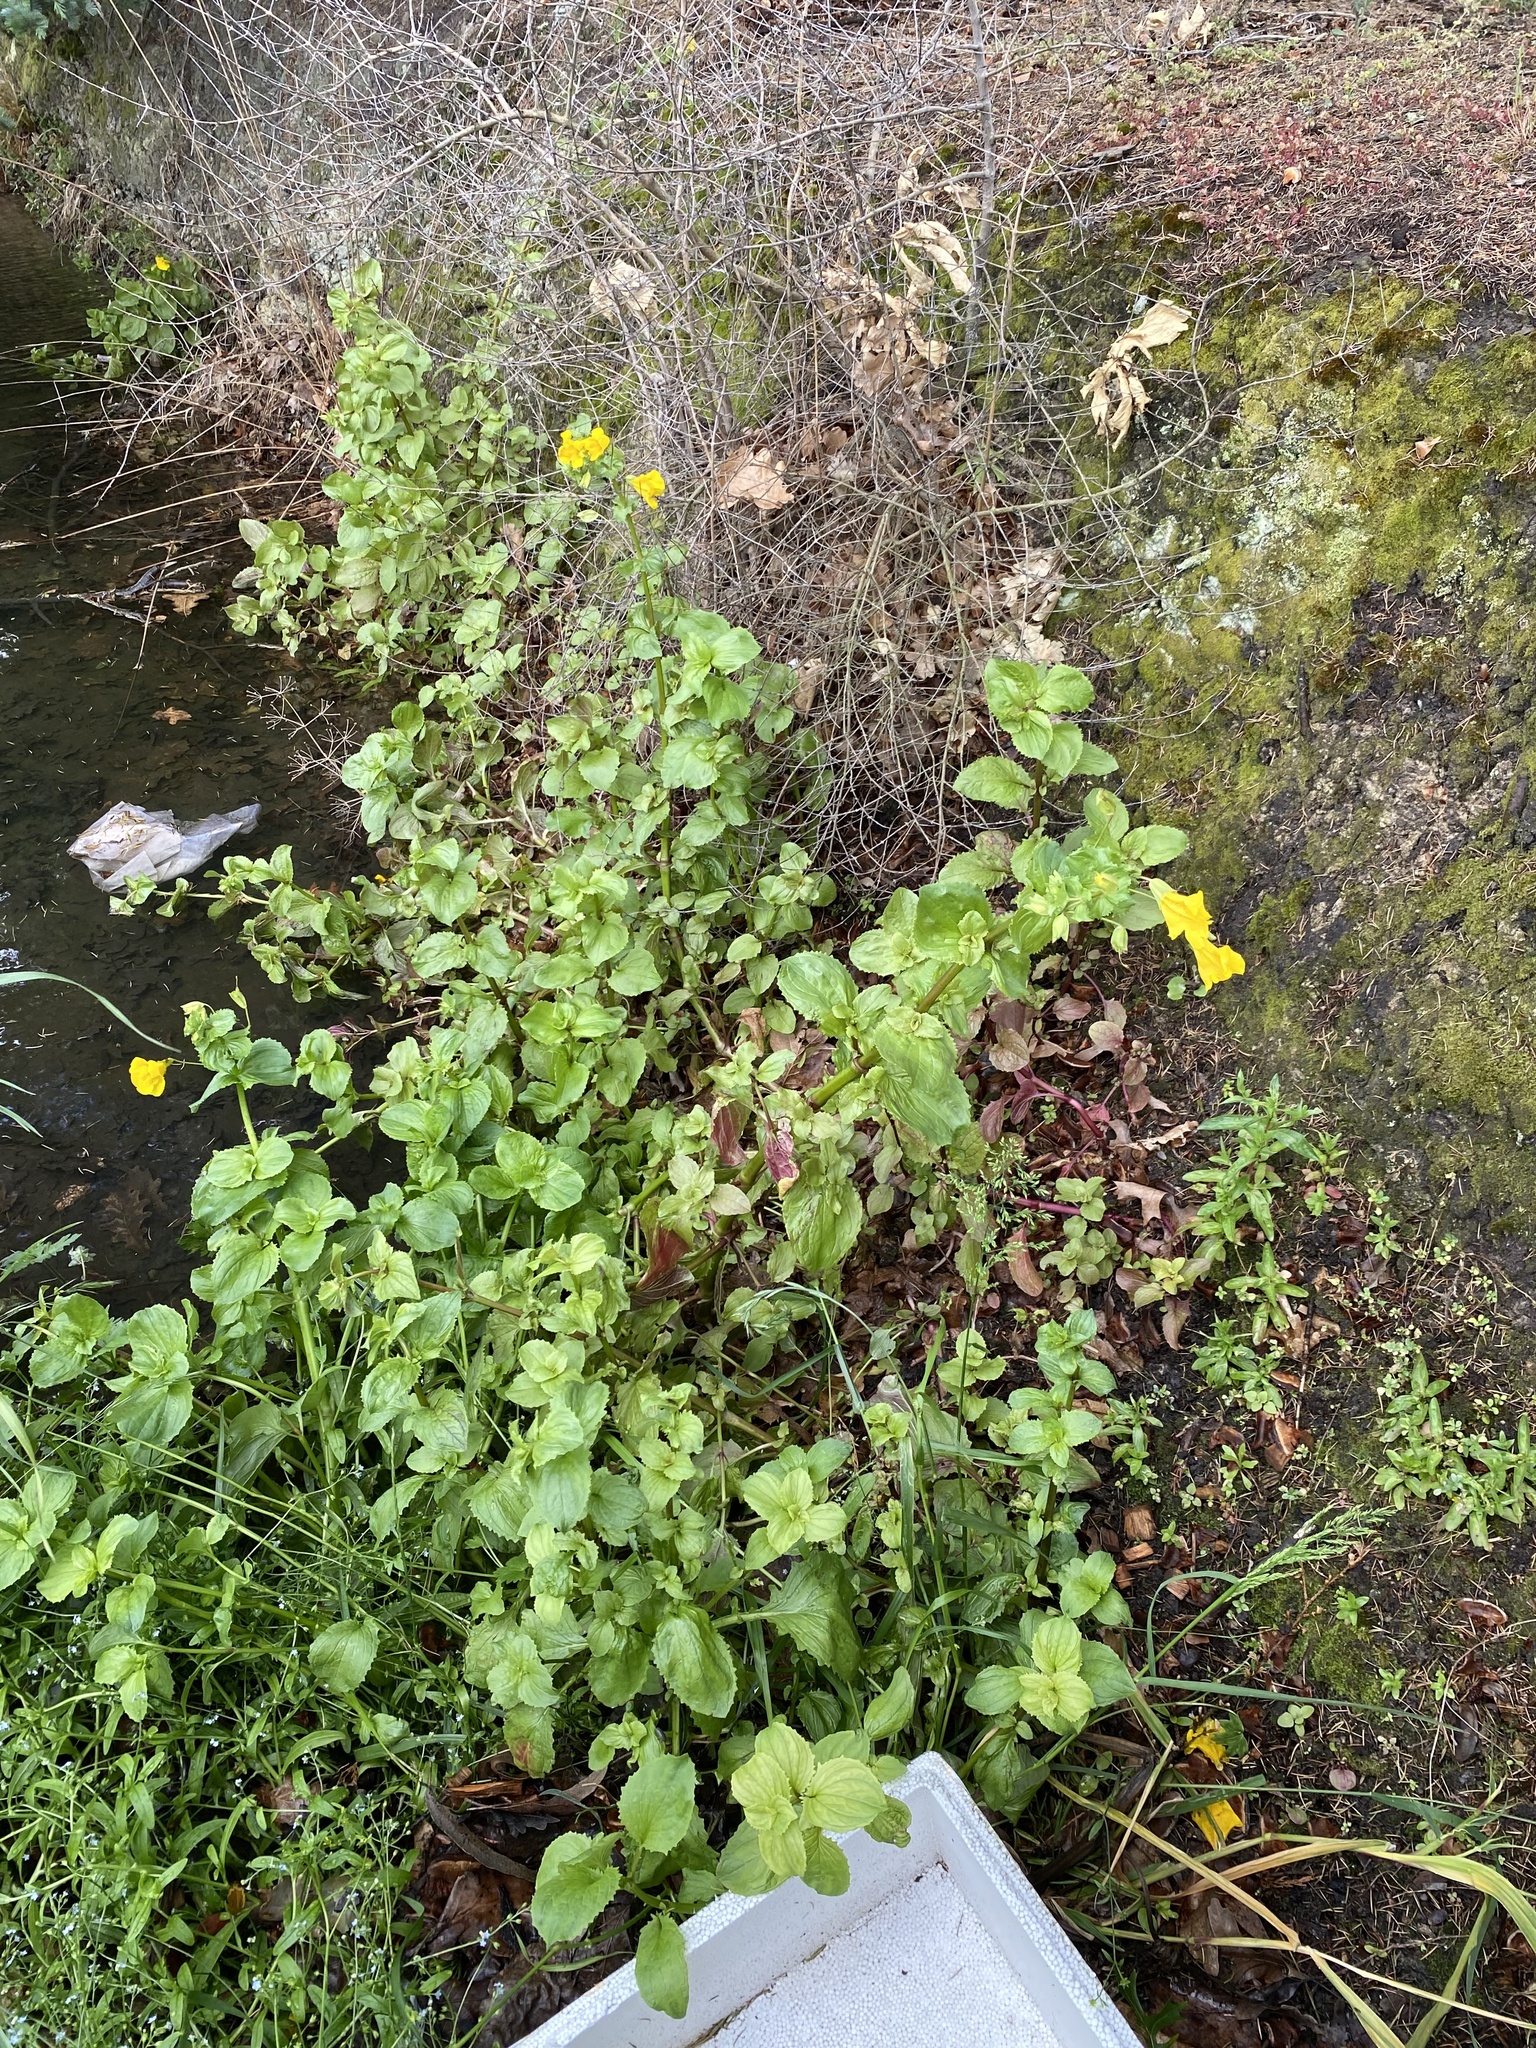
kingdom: Plantae
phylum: Tracheophyta
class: Magnoliopsida
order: Lamiales
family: Phrymaceae
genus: Erythranthe
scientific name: Erythranthe moschata
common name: Muskflower
